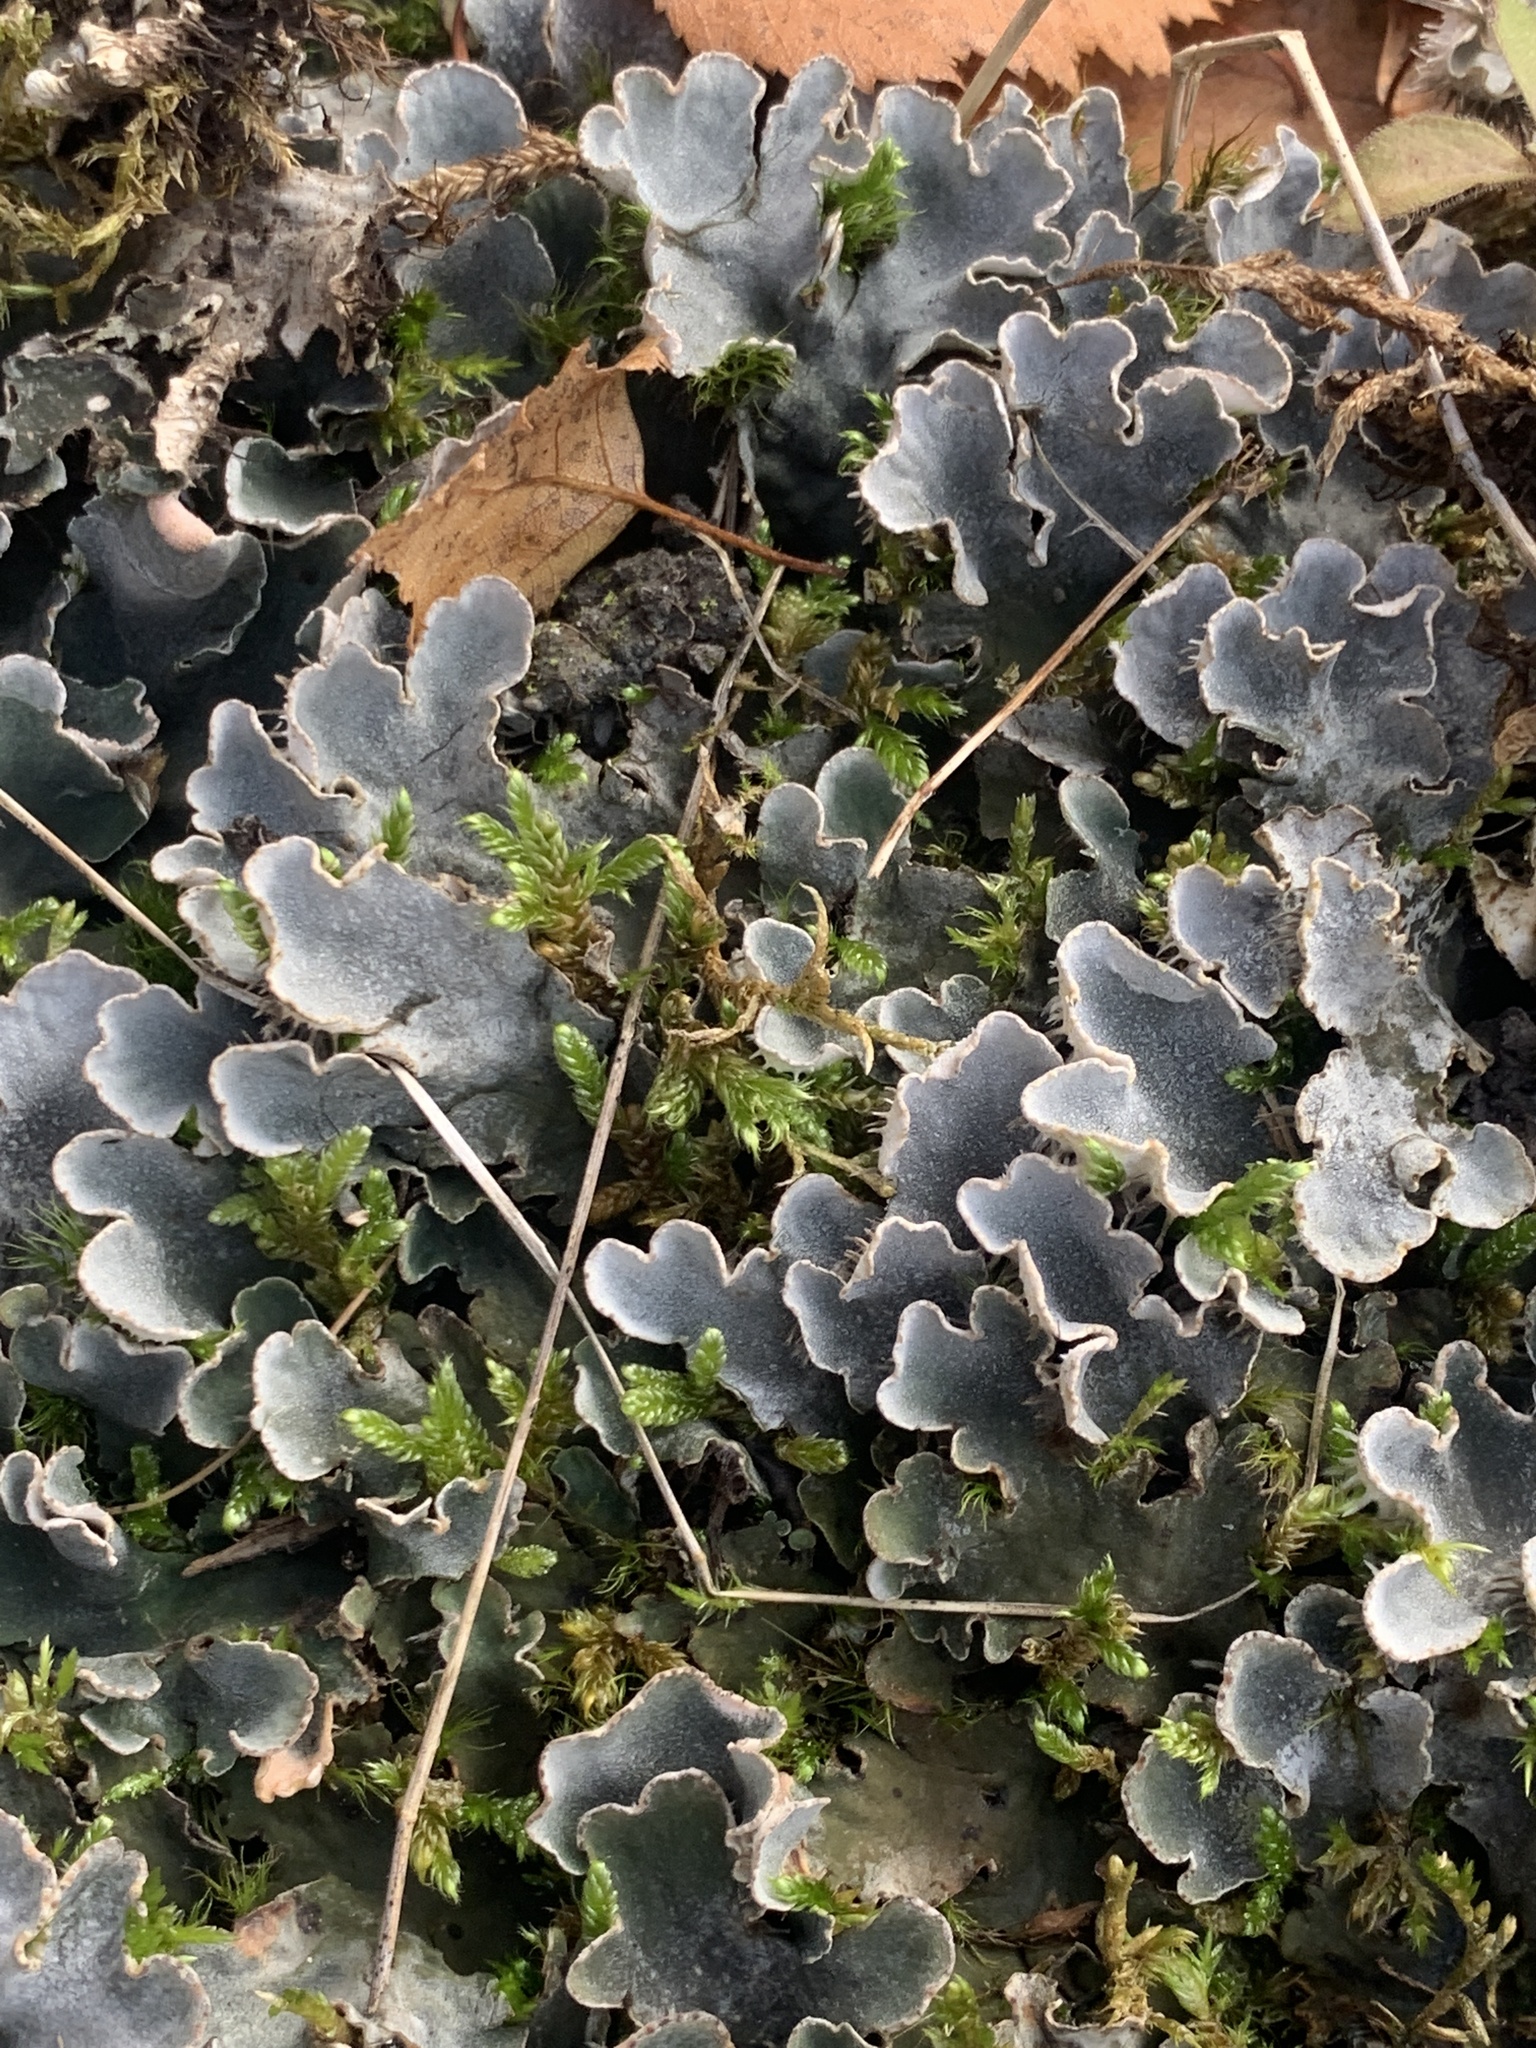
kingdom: Fungi
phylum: Ascomycota
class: Lecanoromycetes
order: Peltigerales
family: Peltigeraceae
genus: Peltigera
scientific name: Peltigera praetextata
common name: Scaly dog-lichen
